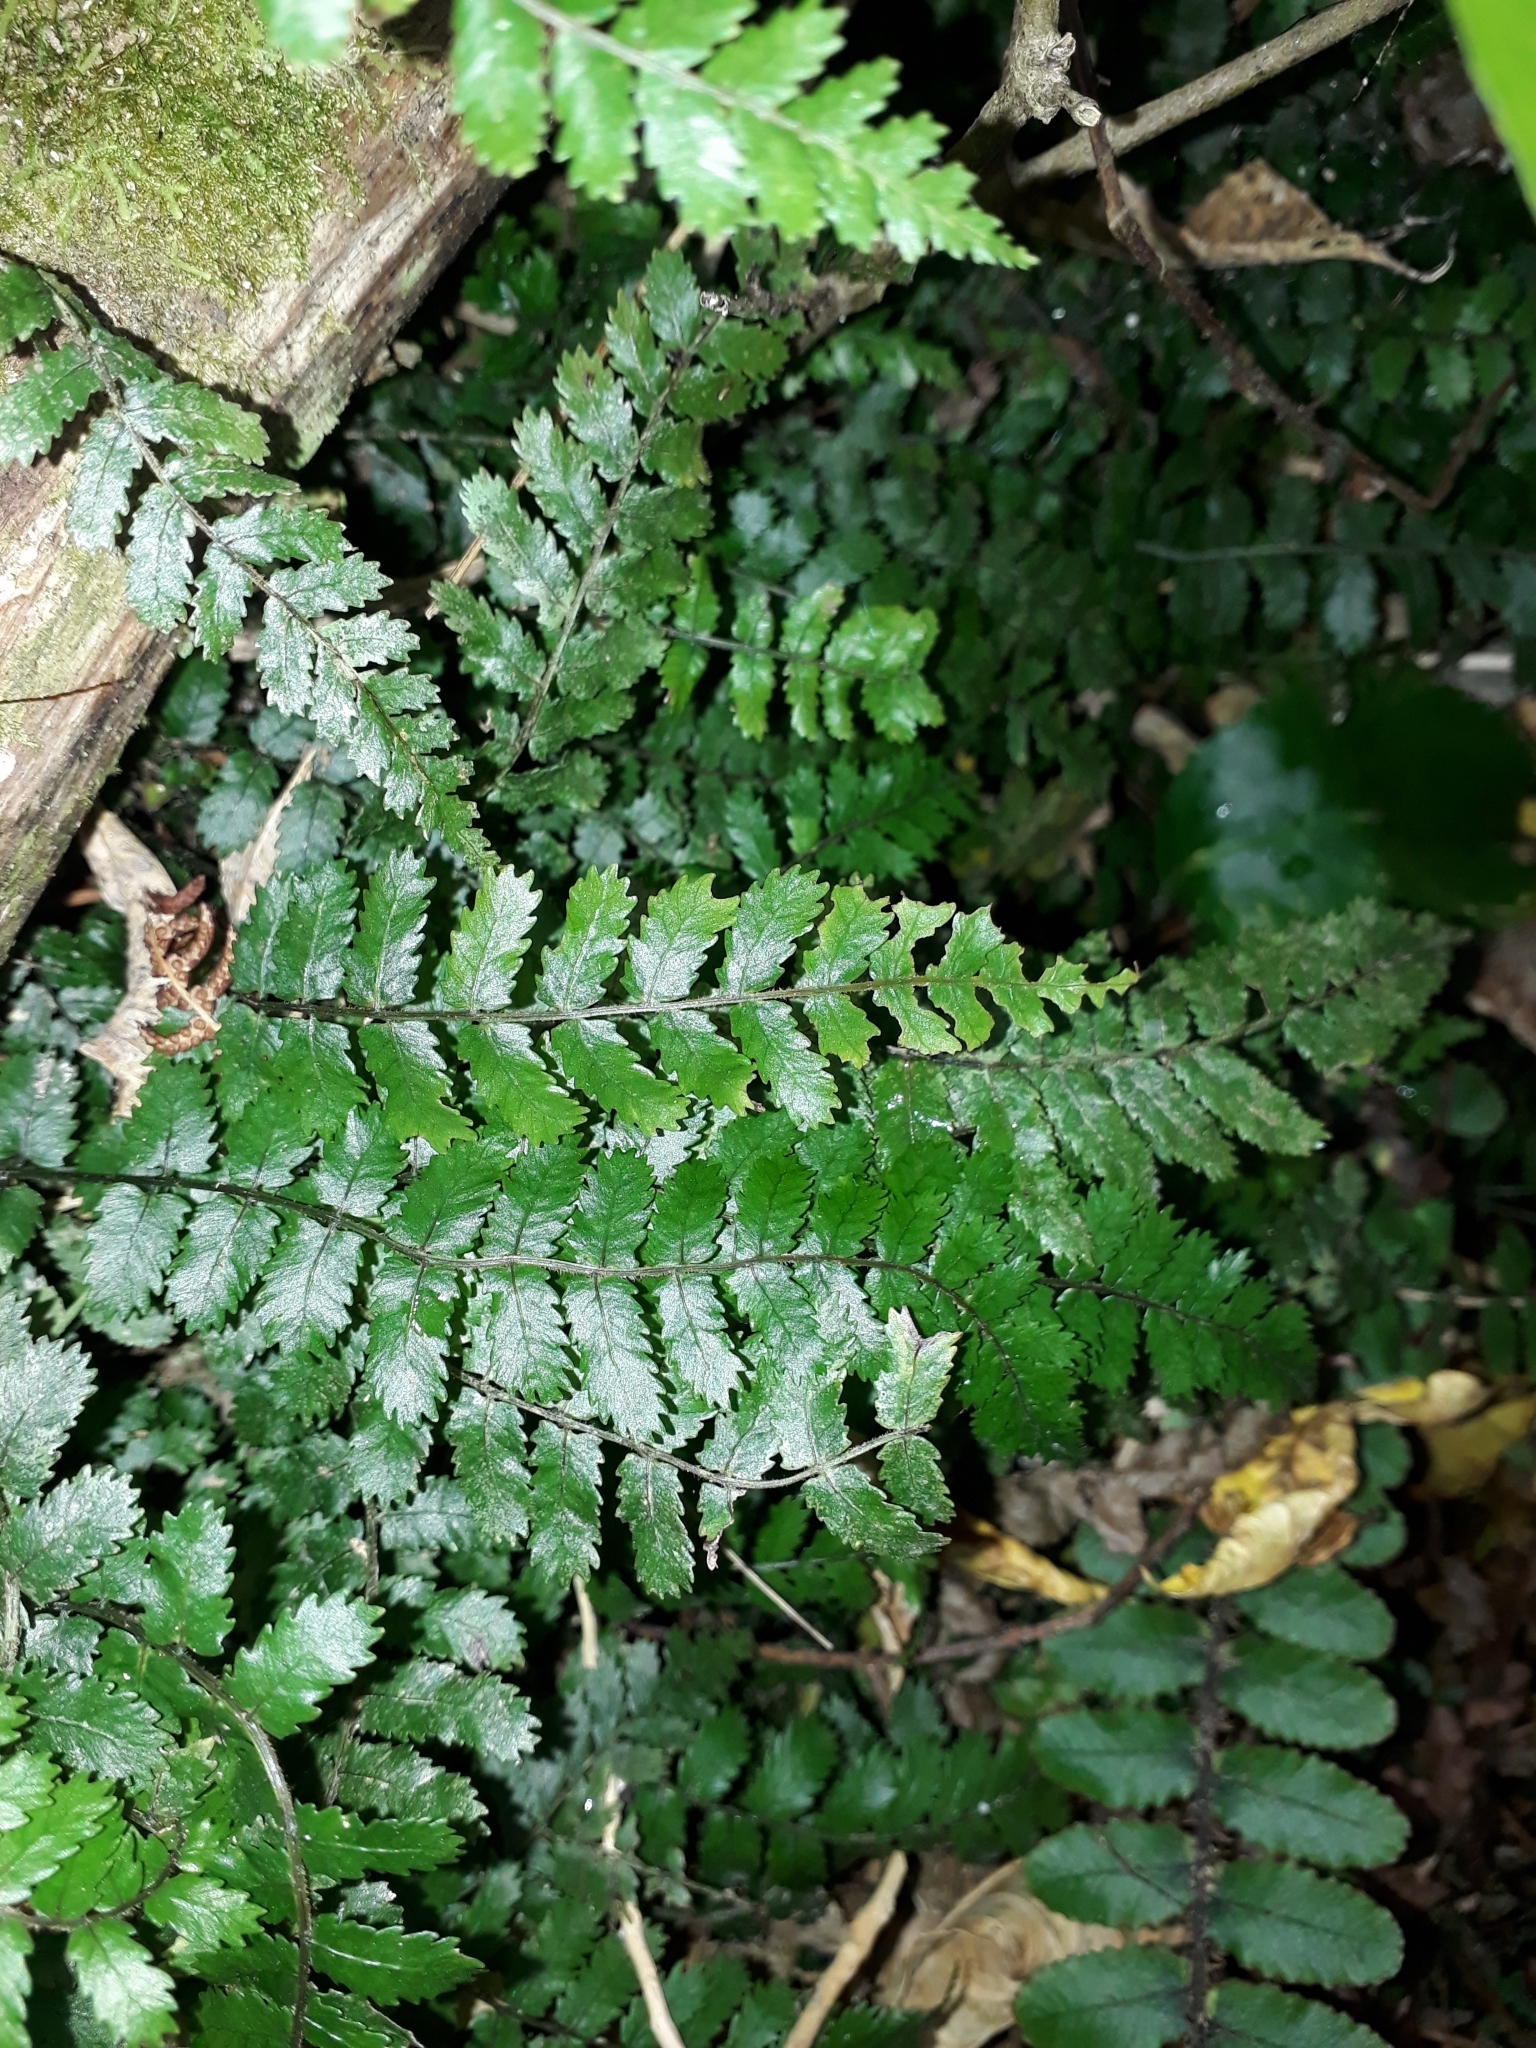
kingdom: Plantae
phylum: Tracheophyta
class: Polypodiopsida
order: Polypodiales
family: Blechnaceae
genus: Icarus
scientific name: Icarus filiformis
